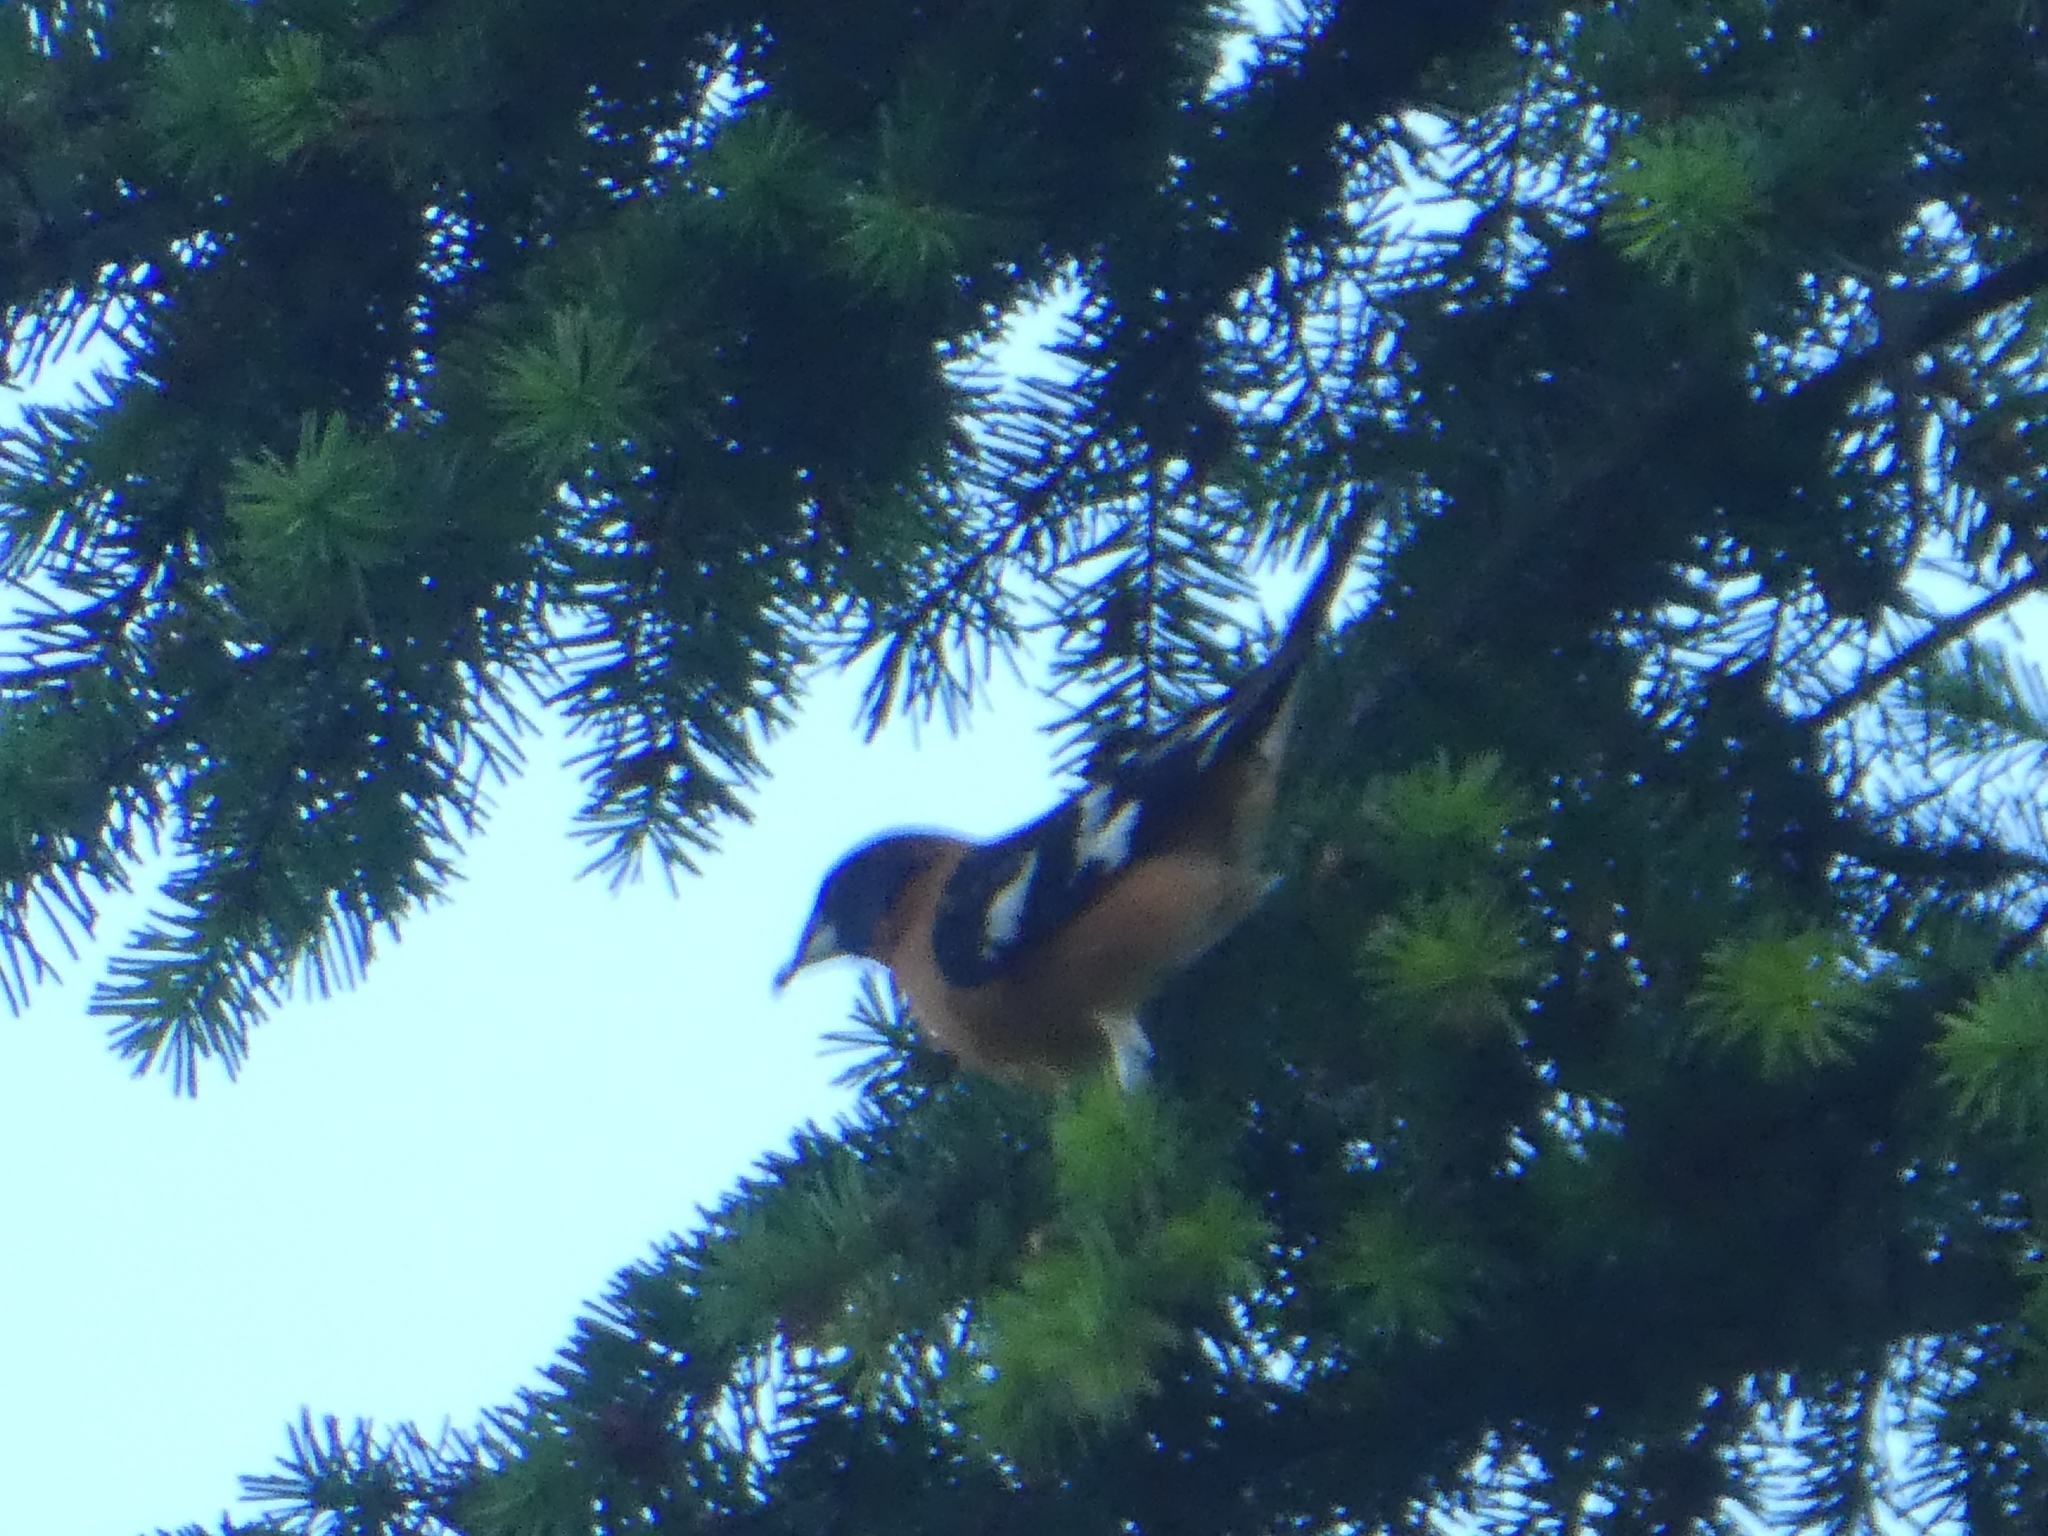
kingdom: Animalia
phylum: Chordata
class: Aves
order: Passeriformes
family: Cardinalidae
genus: Pheucticus
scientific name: Pheucticus melanocephalus
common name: Black-headed grosbeak
